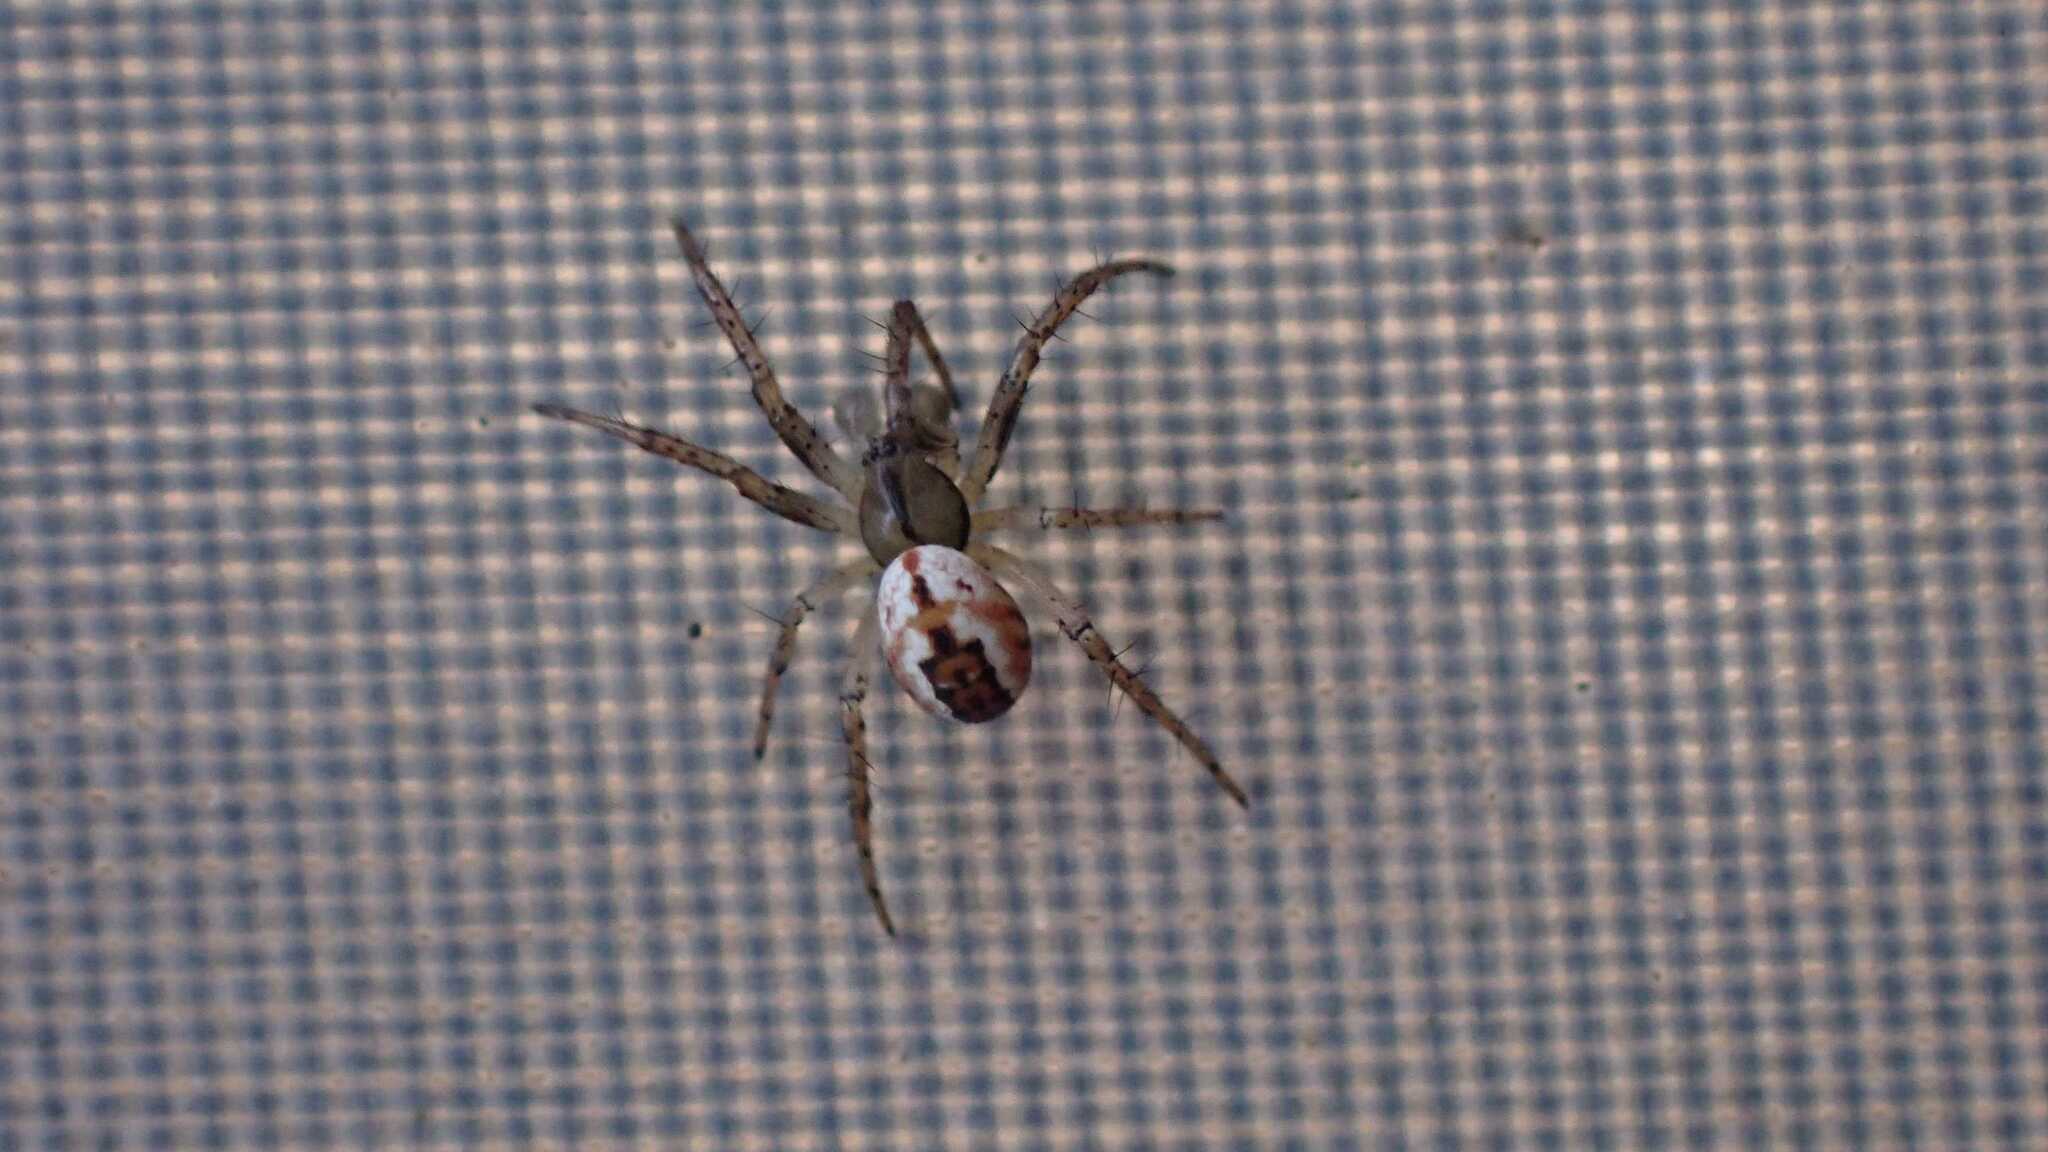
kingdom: Animalia
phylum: Arthropoda
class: Arachnida
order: Araneae
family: Araneidae
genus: Mangora
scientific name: Mangora acalypha
